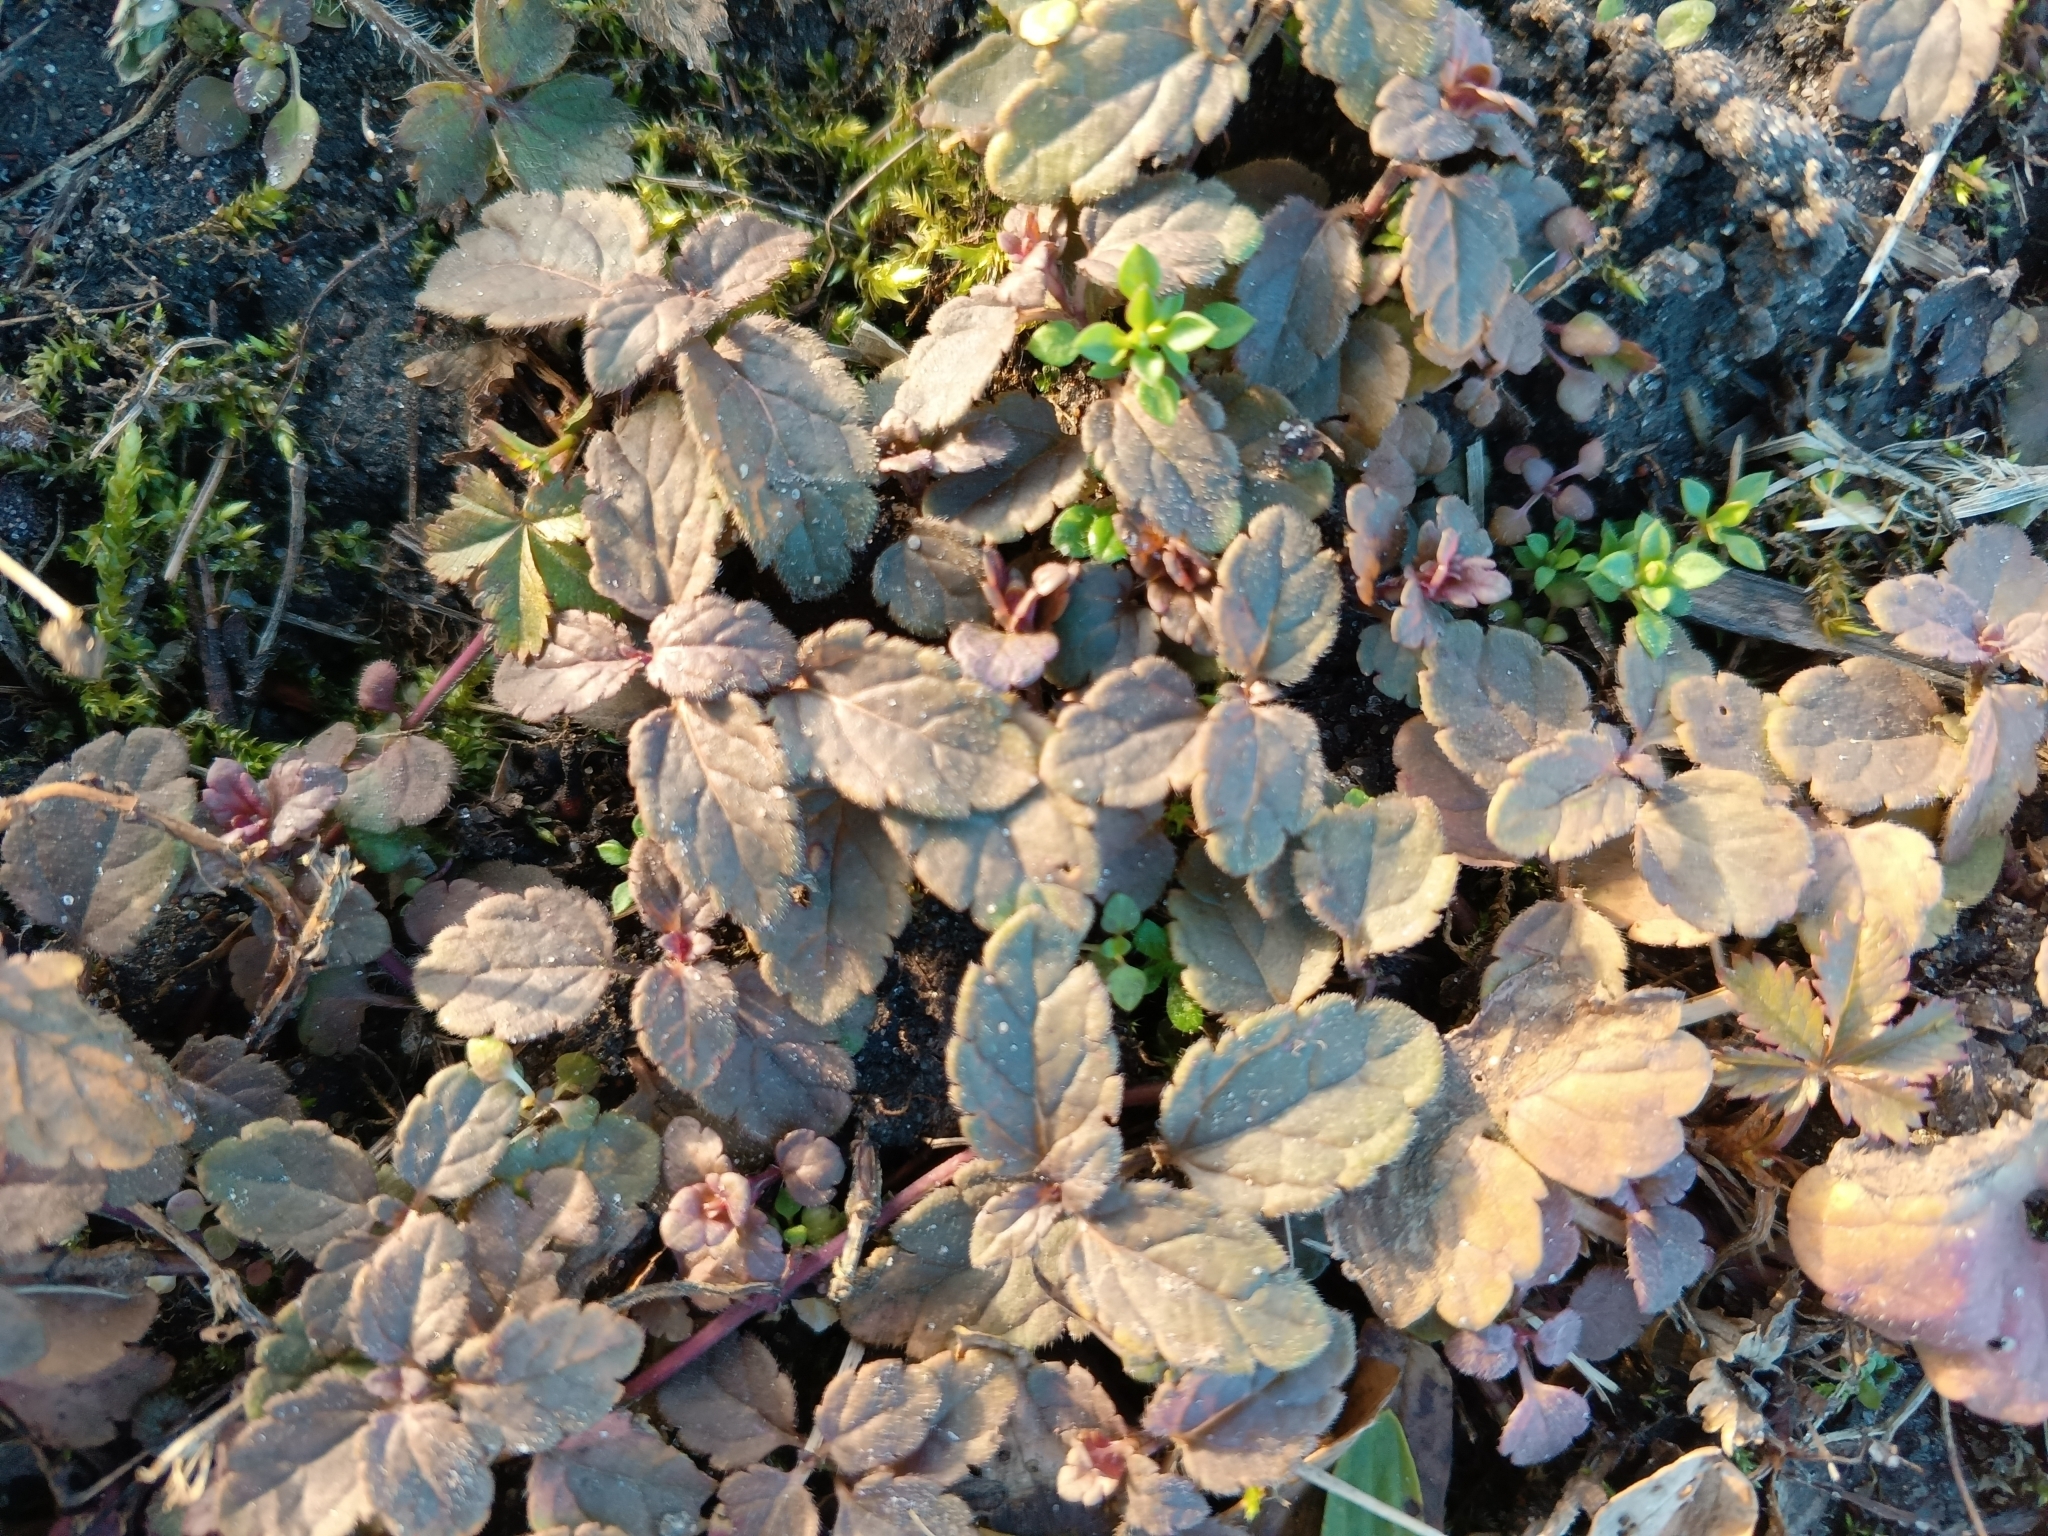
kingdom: Plantae
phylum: Tracheophyta
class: Magnoliopsida
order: Lamiales
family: Plantaginaceae
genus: Veronica
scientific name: Veronica chamaedrys
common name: Germander speedwell
